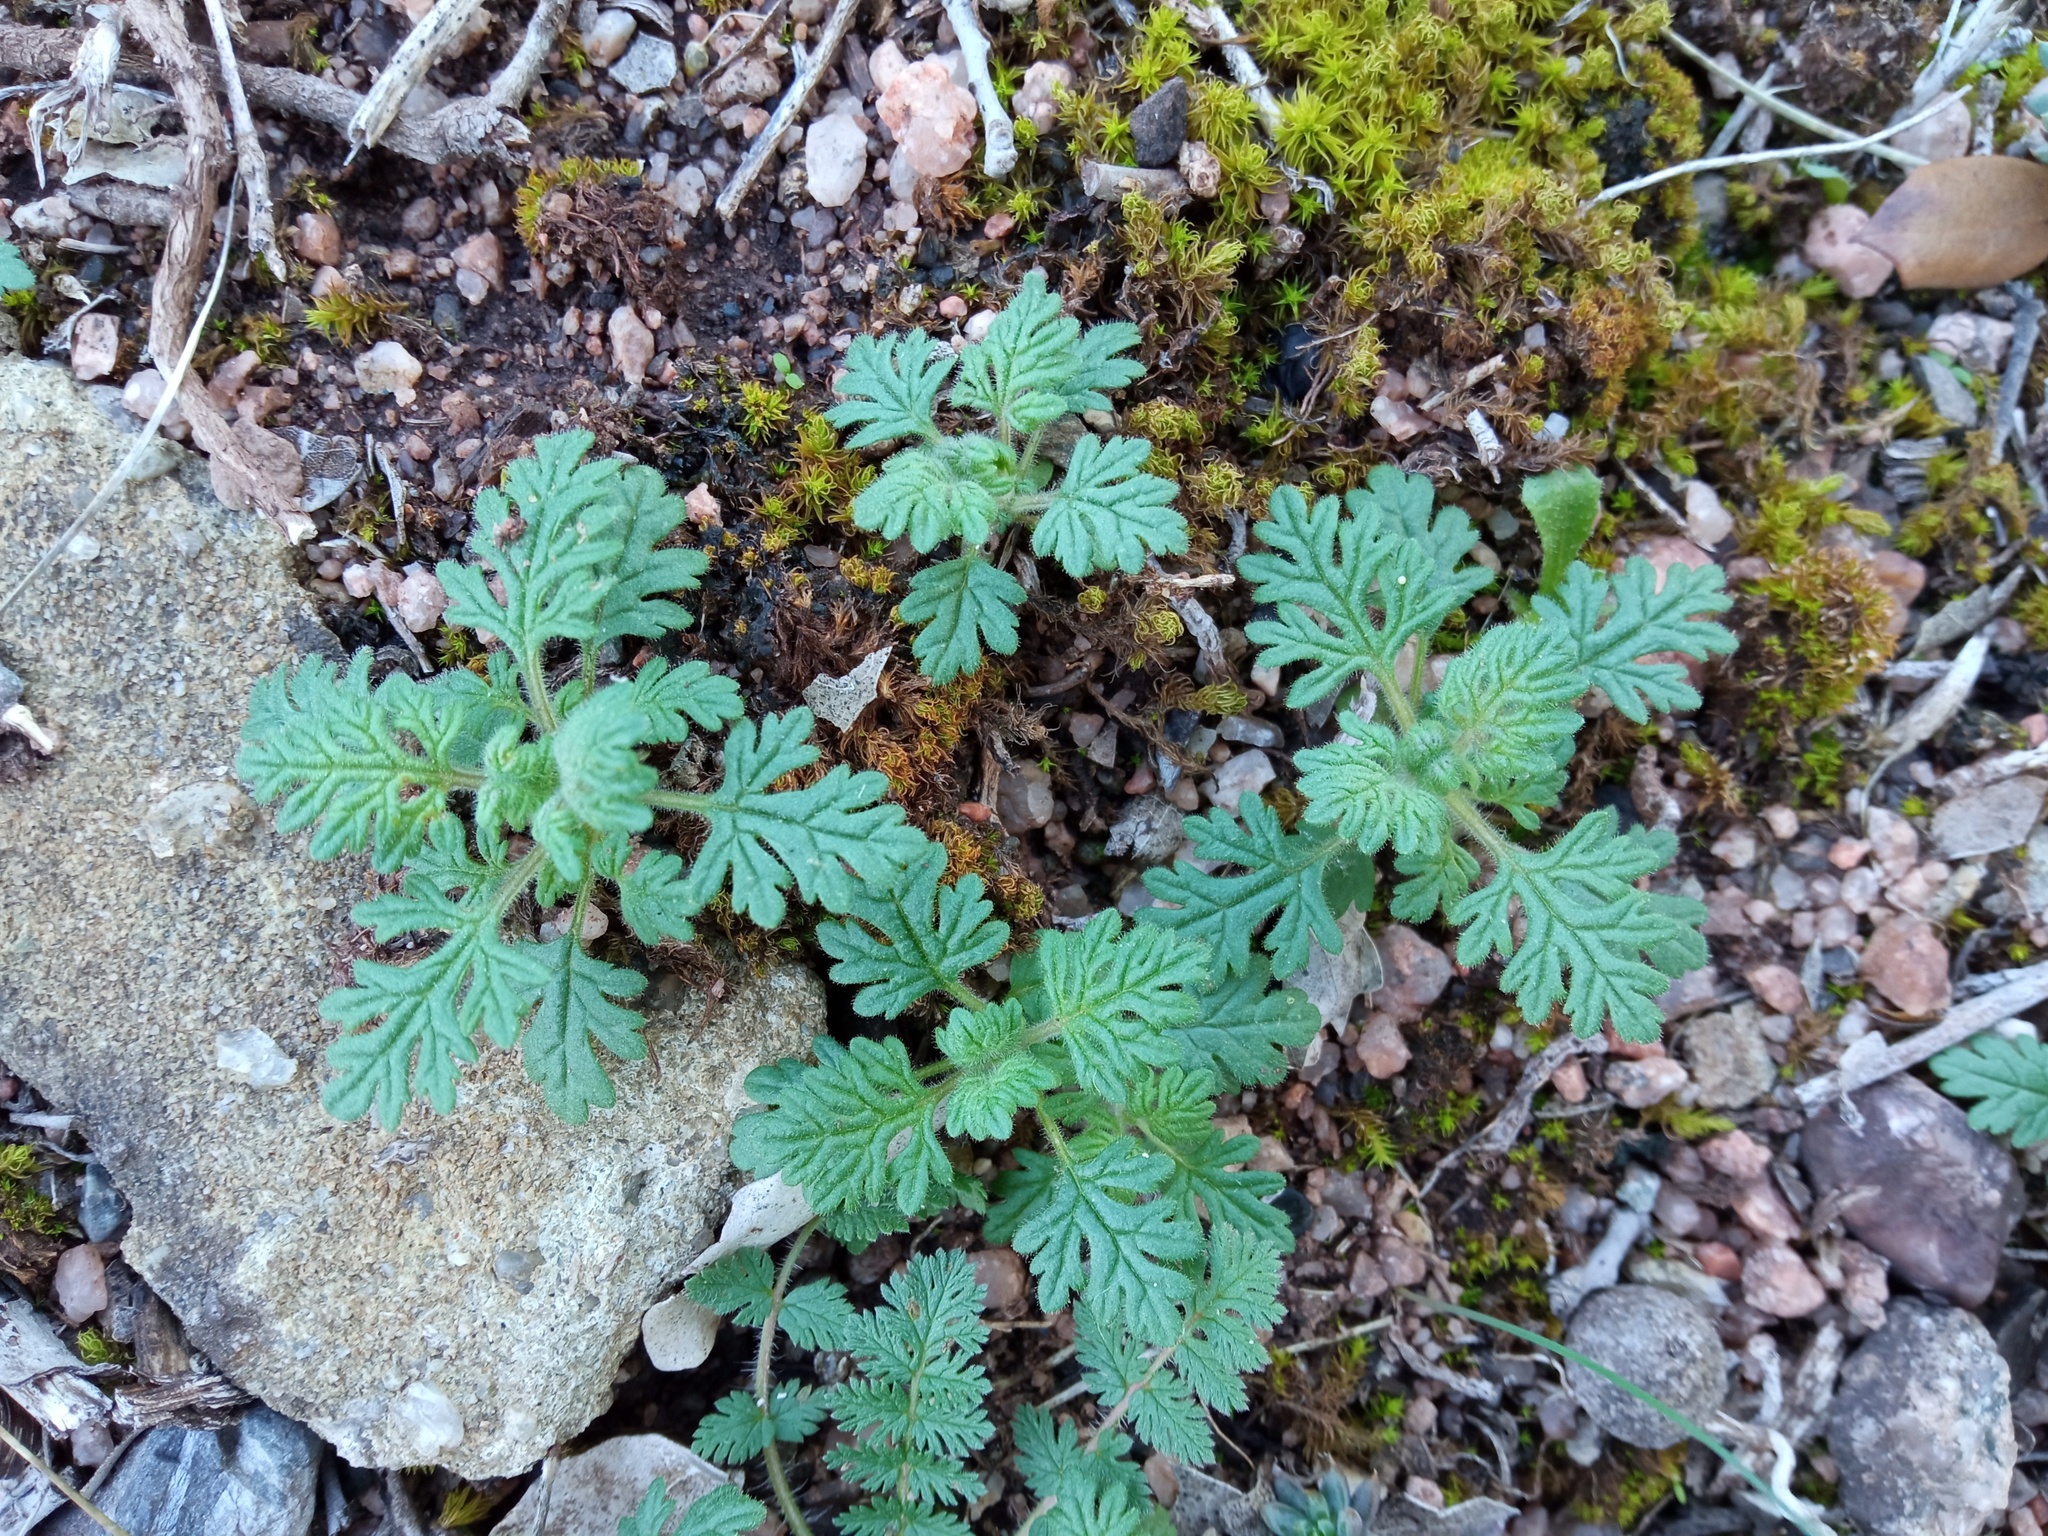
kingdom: Plantae
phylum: Tracheophyta
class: Magnoliopsida
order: Lamiales
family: Lamiaceae
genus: Teucrium
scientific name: Teucrium botrys
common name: Cut-leaved germander
